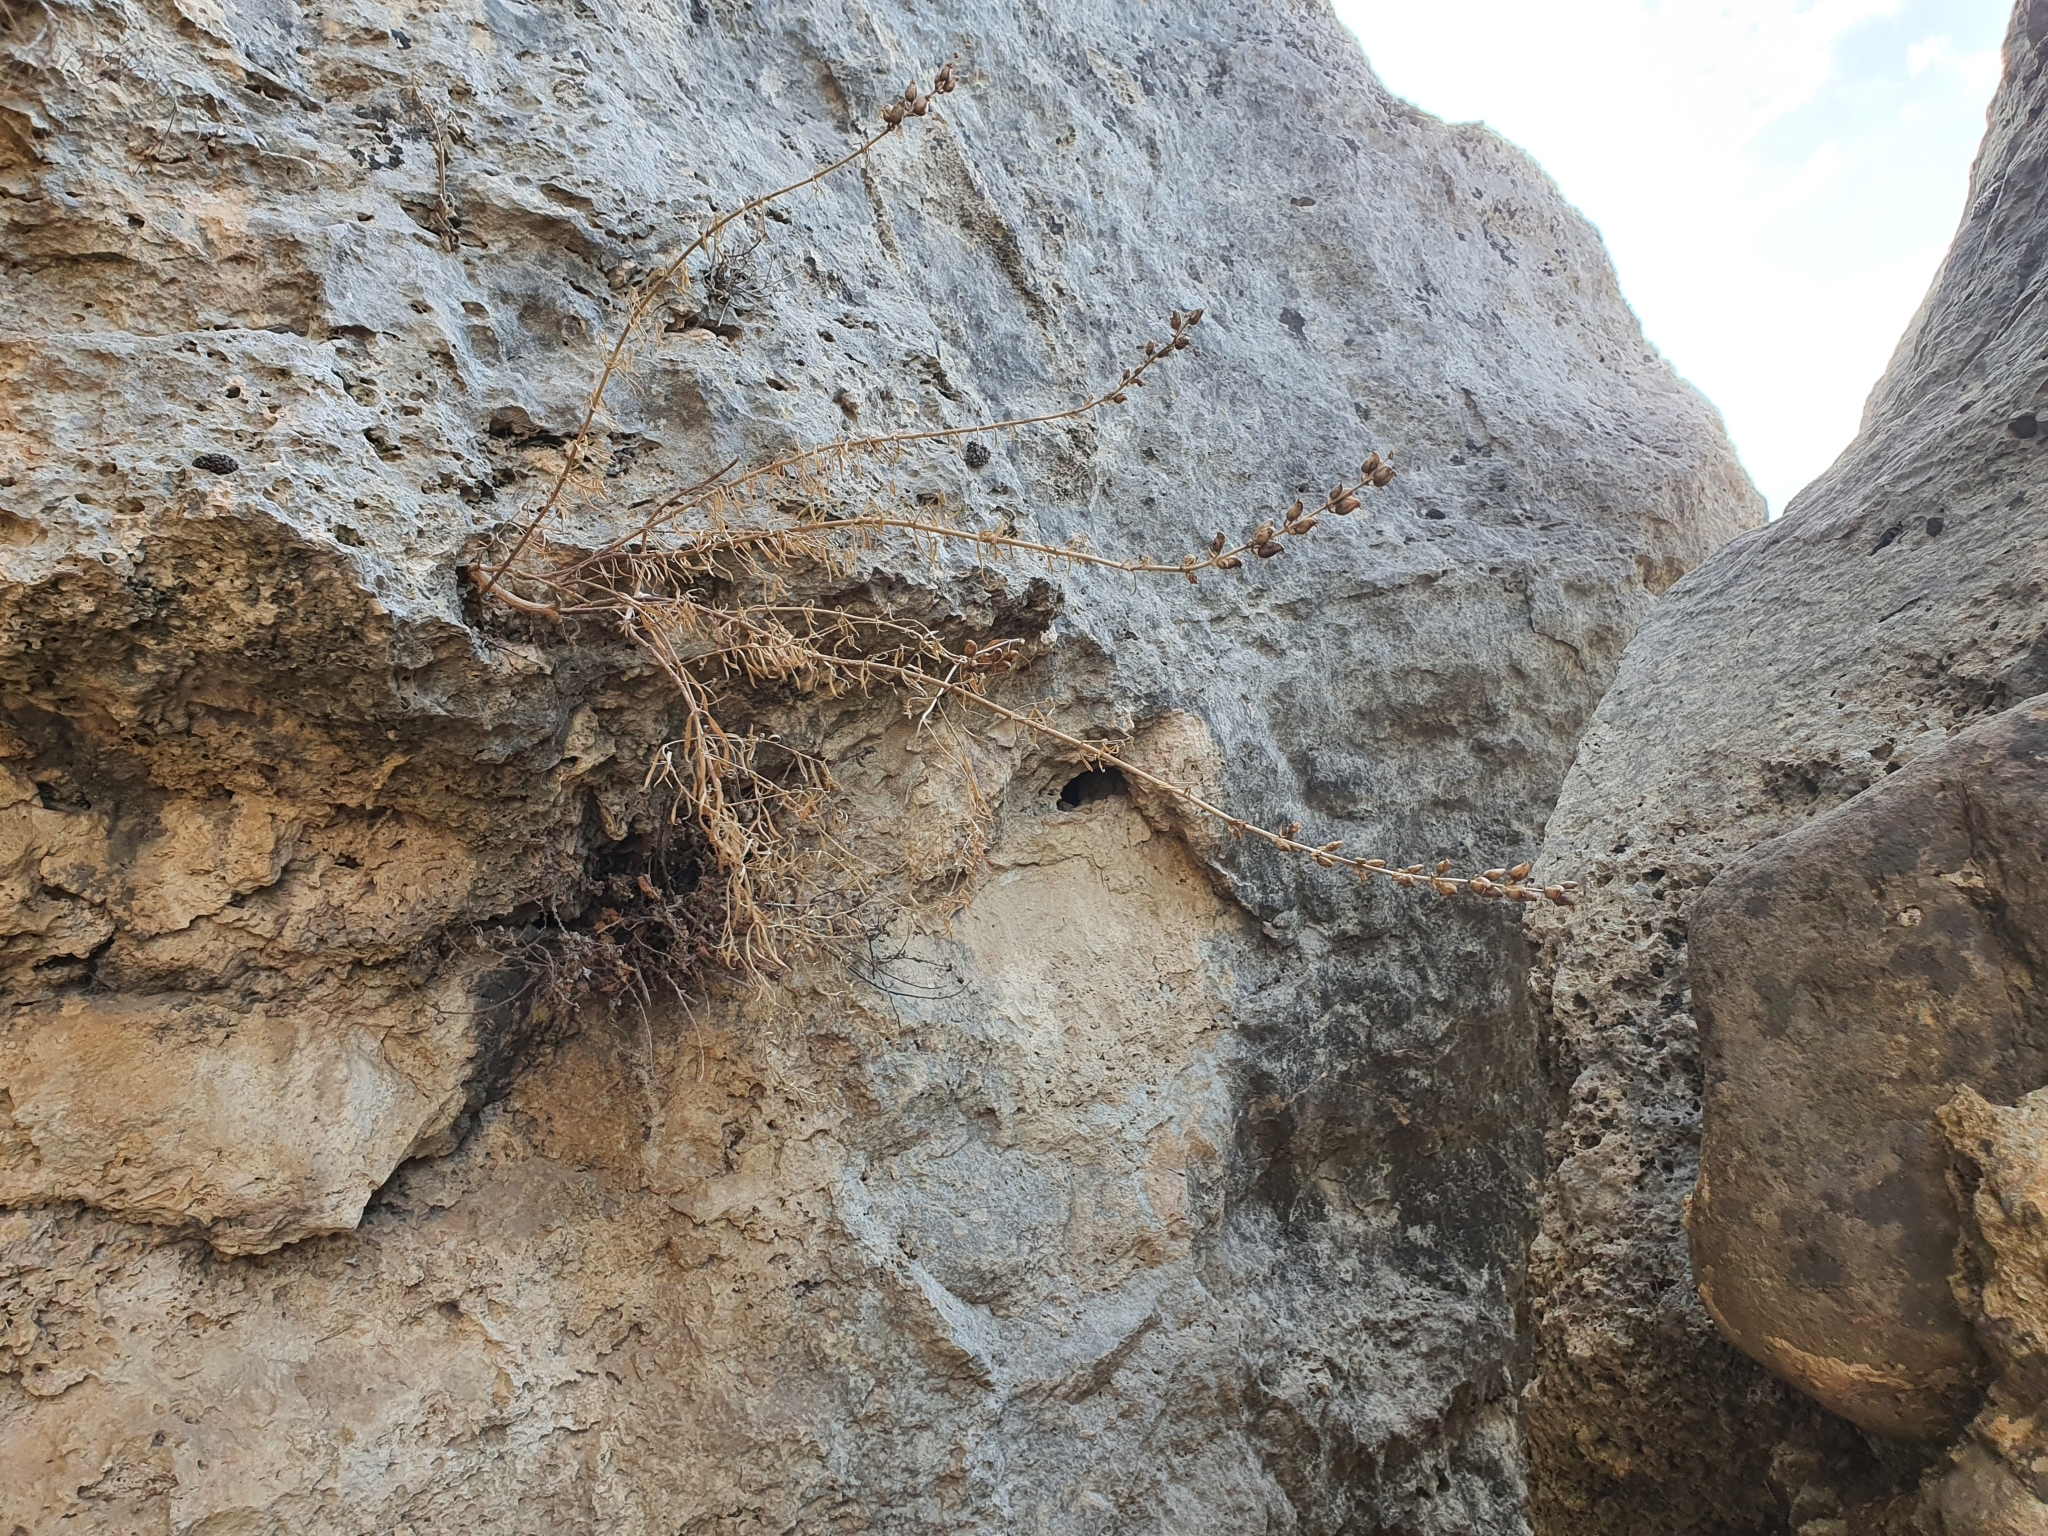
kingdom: Plantae
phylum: Tracheophyta
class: Magnoliopsida
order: Lamiales
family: Plantaginaceae
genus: Antirrhinum
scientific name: Antirrhinum tortuosum
